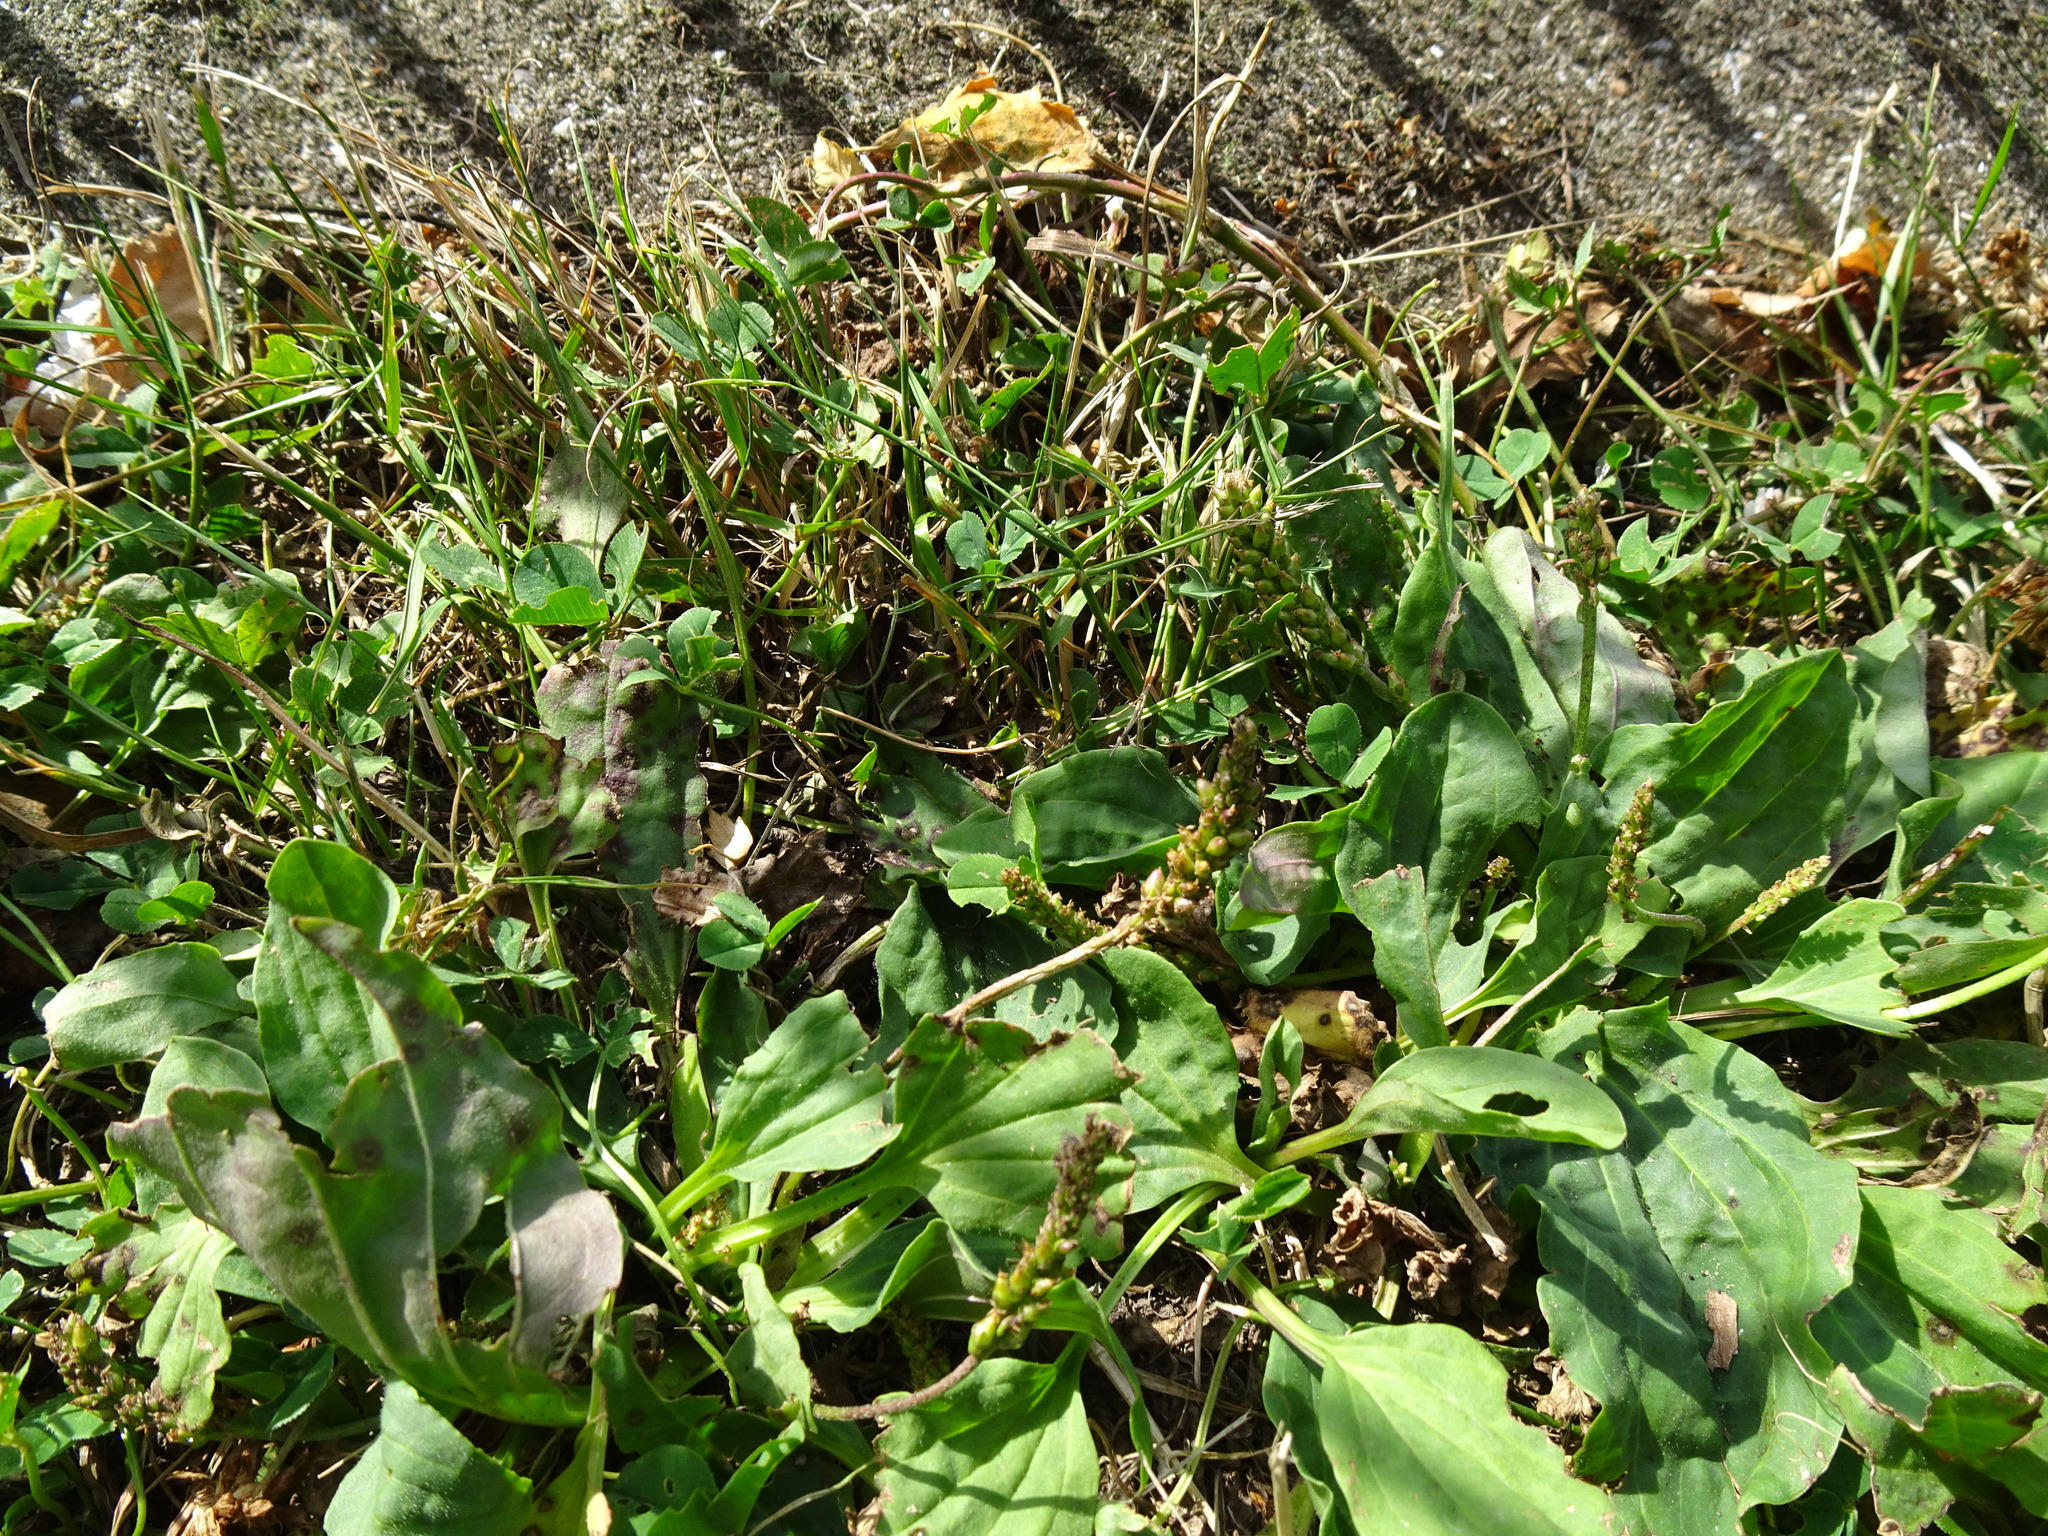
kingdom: Plantae
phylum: Tracheophyta
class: Magnoliopsida
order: Lamiales
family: Plantaginaceae
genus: Plantago
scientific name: Plantago major
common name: Common plantain
